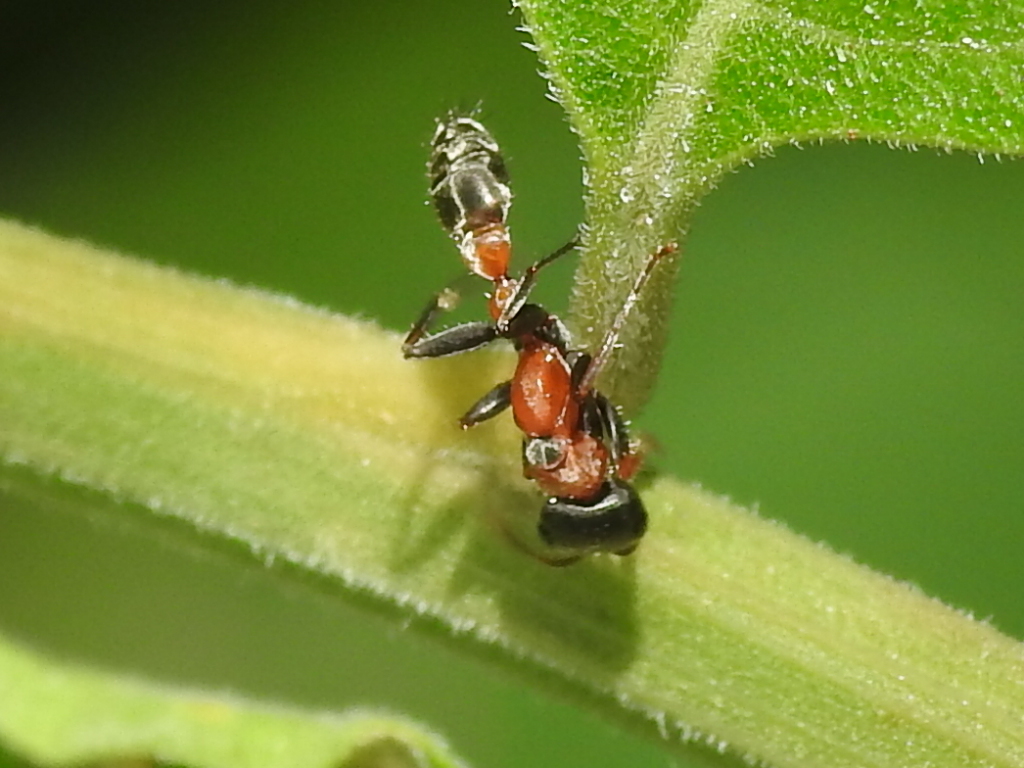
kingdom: Animalia
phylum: Arthropoda
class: Insecta
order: Hymenoptera
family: Formicidae
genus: Pseudomyrmex
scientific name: Pseudomyrmex gracilis
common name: Graceful twig ant
